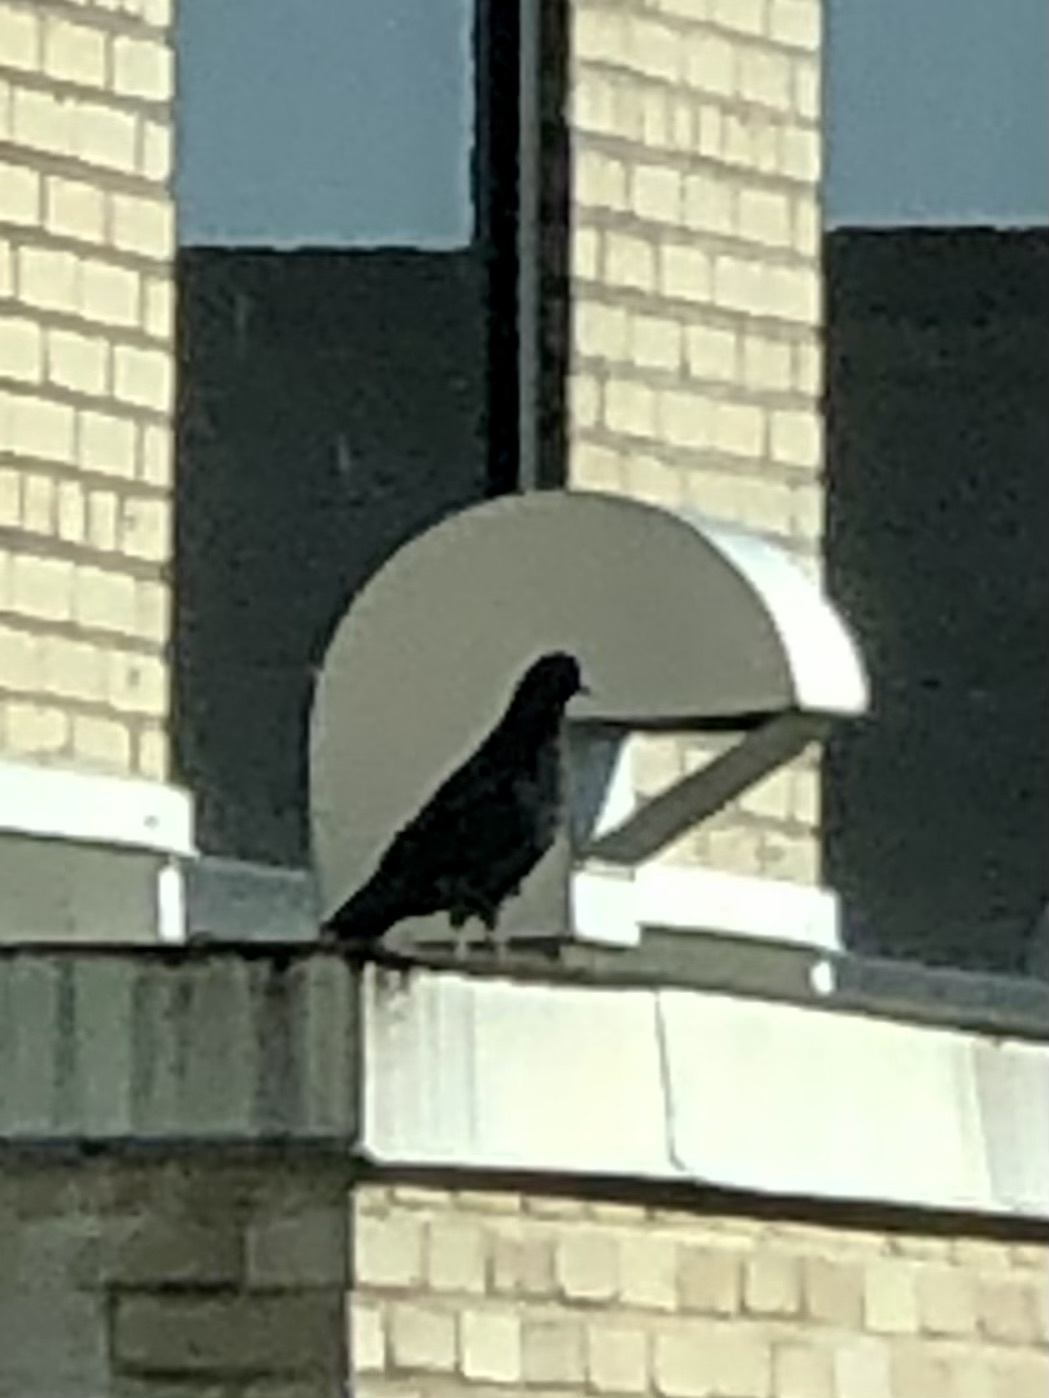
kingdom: Animalia
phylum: Chordata
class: Aves
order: Columbiformes
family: Columbidae
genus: Columba
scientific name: Columba livia
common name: Rock pigeon
